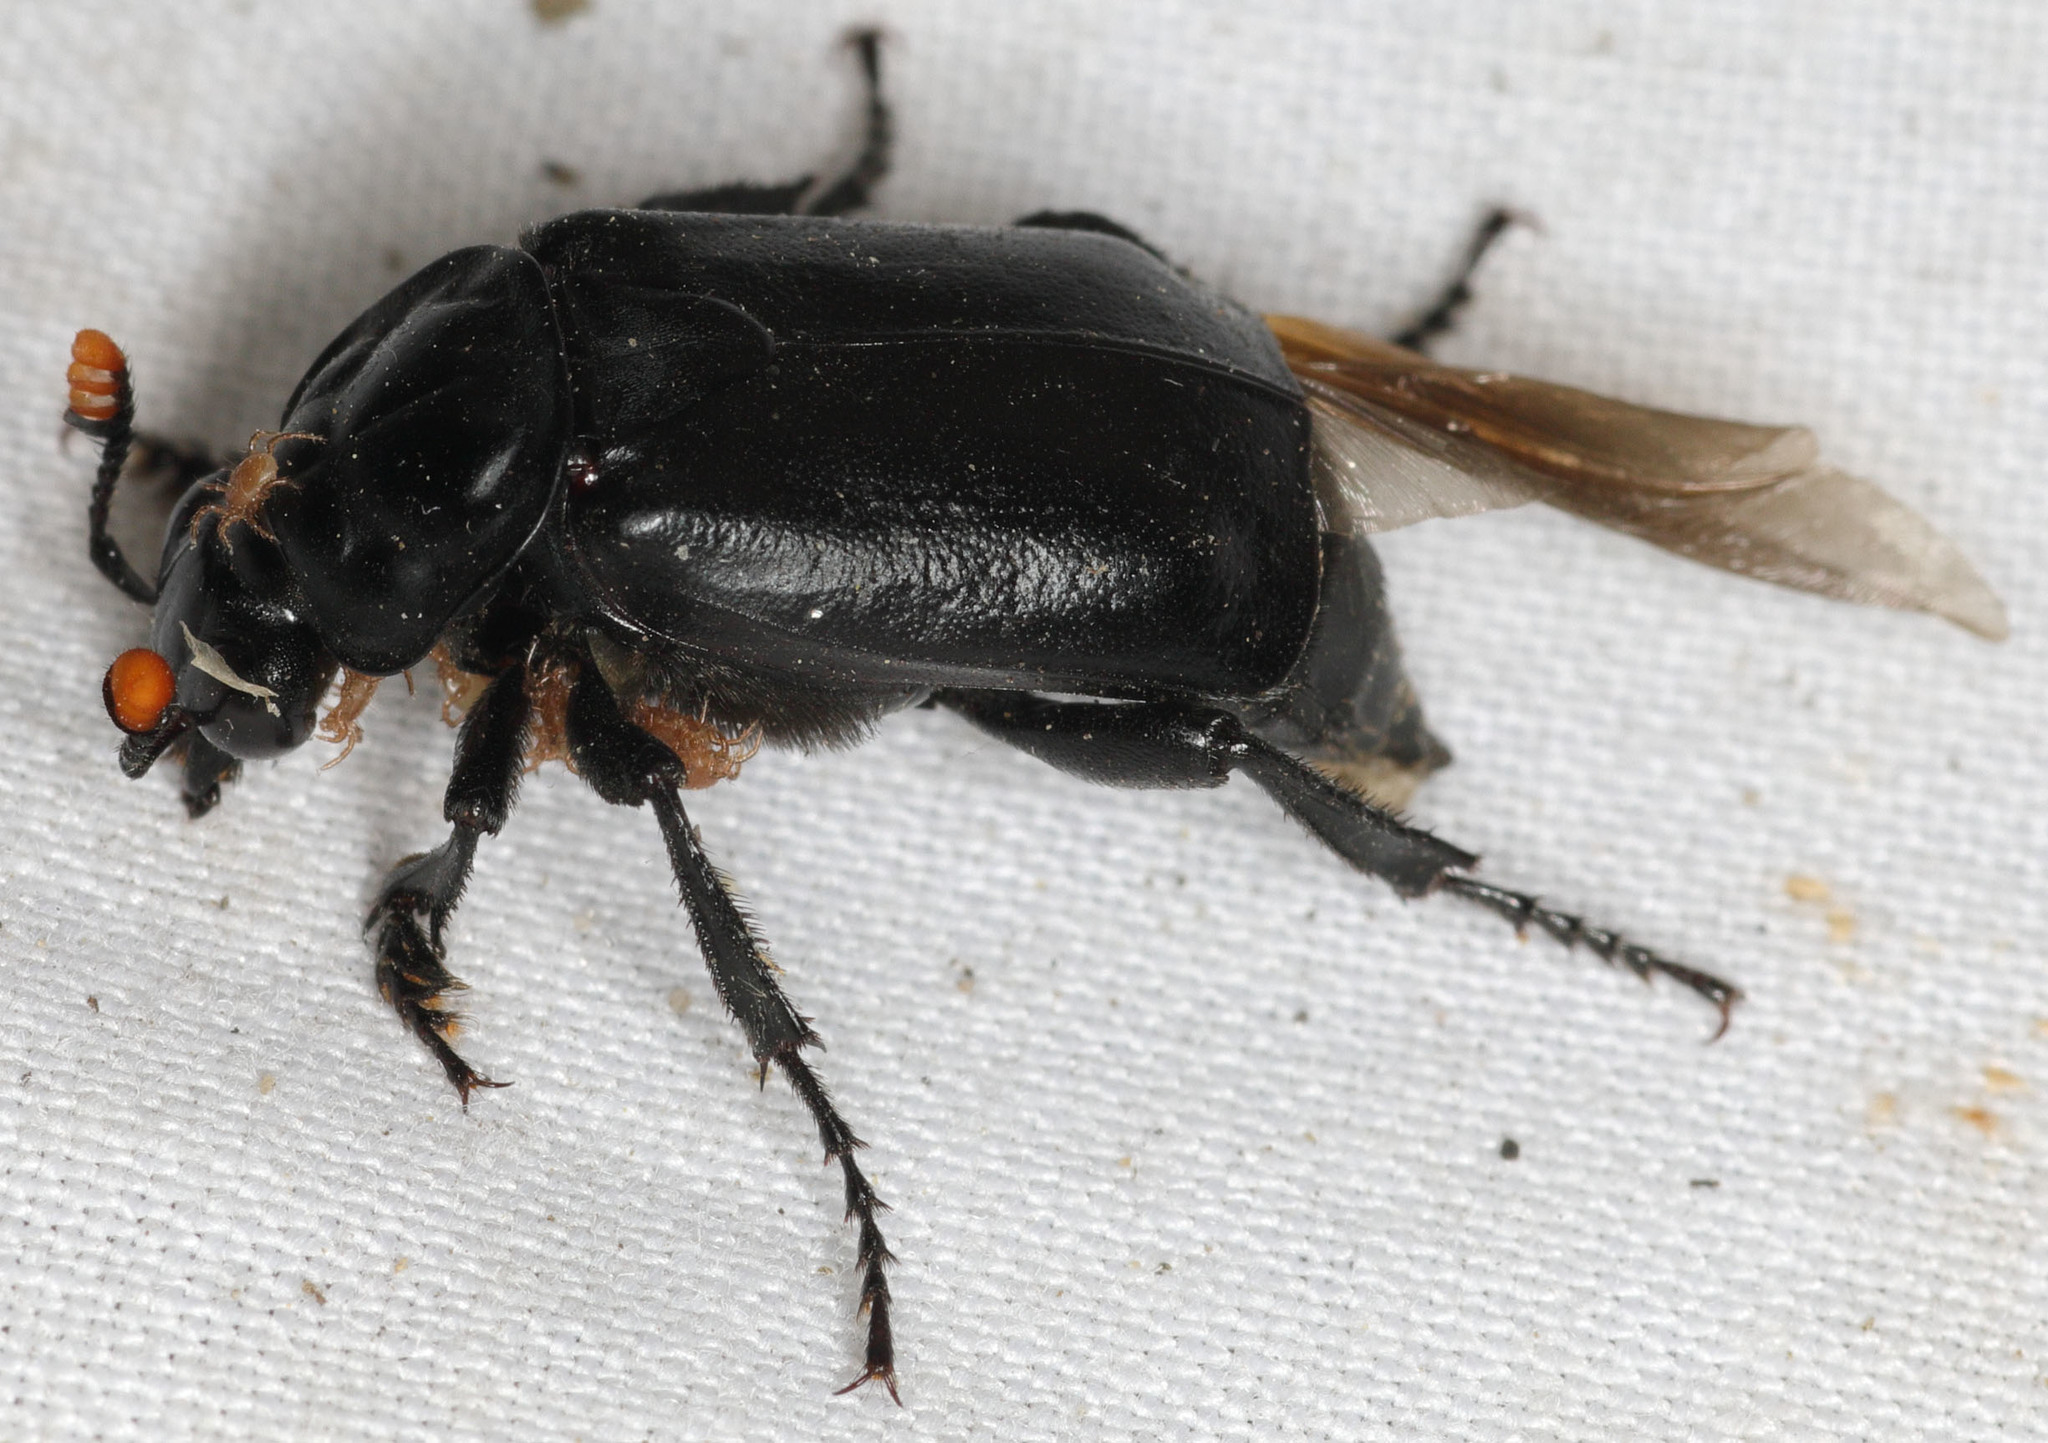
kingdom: Animalia
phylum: Arthropoda
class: Insecta
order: Coleoptera
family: Staphylinidae
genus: Nicrophorus
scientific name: Nicrophorus nigrita
